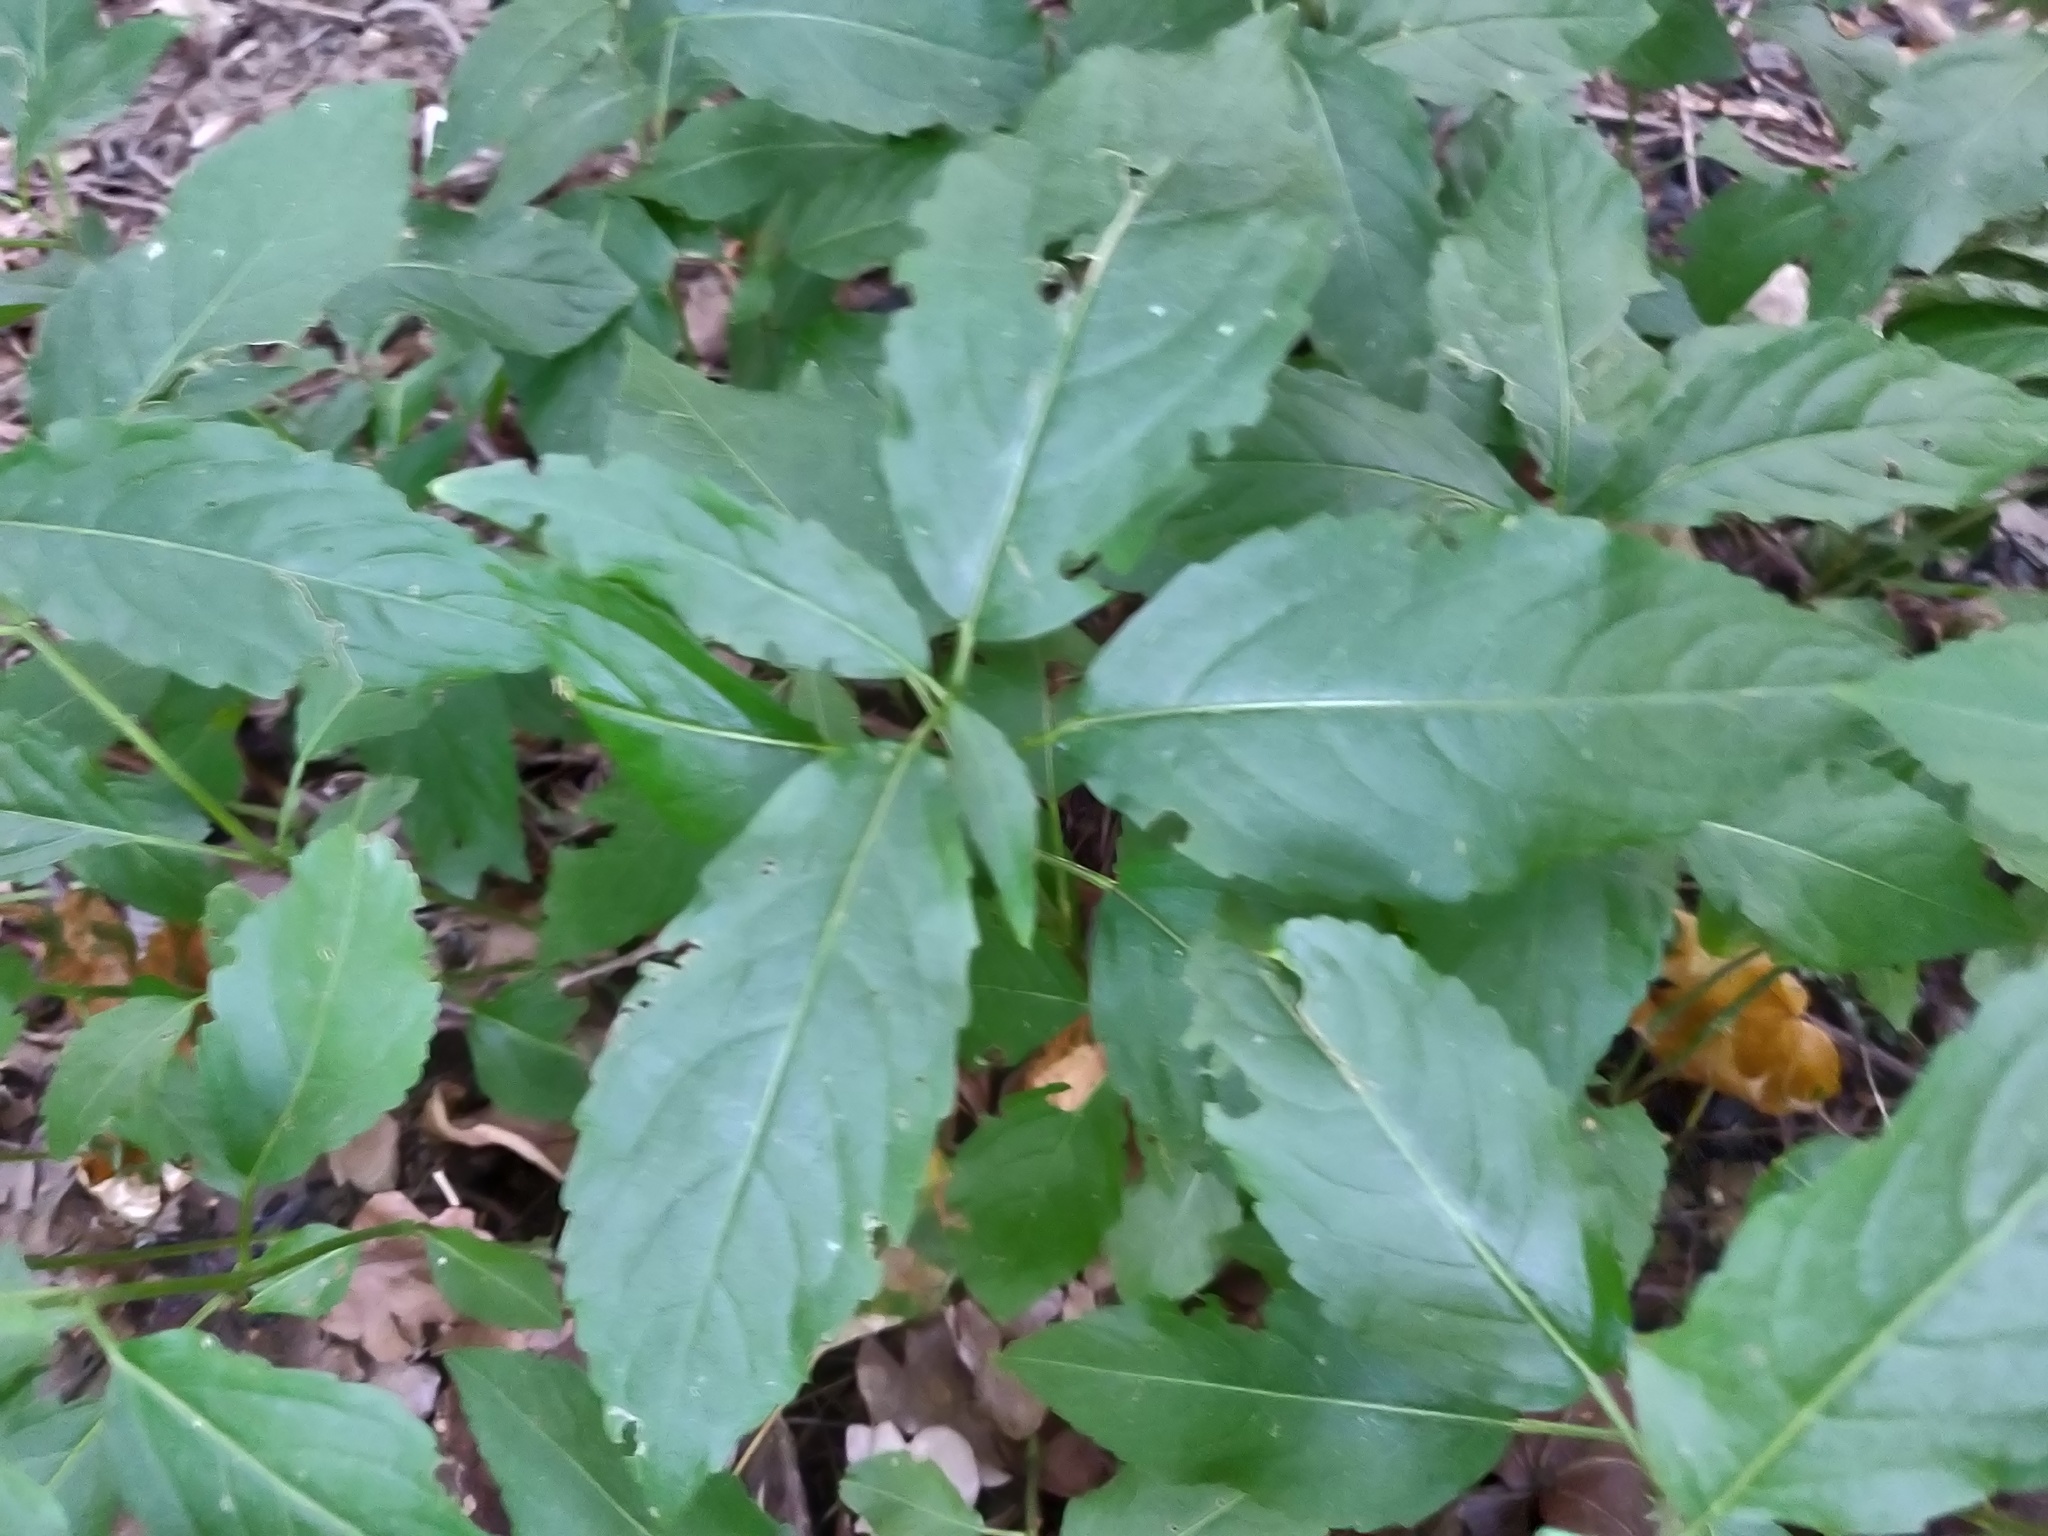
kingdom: Plantae
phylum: Tracheophyta
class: Magnoliopsida
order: Malpighiales
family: Euphorbiaceae
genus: Mercurialis
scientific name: Mercurialis perennis
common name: Dog mercury
